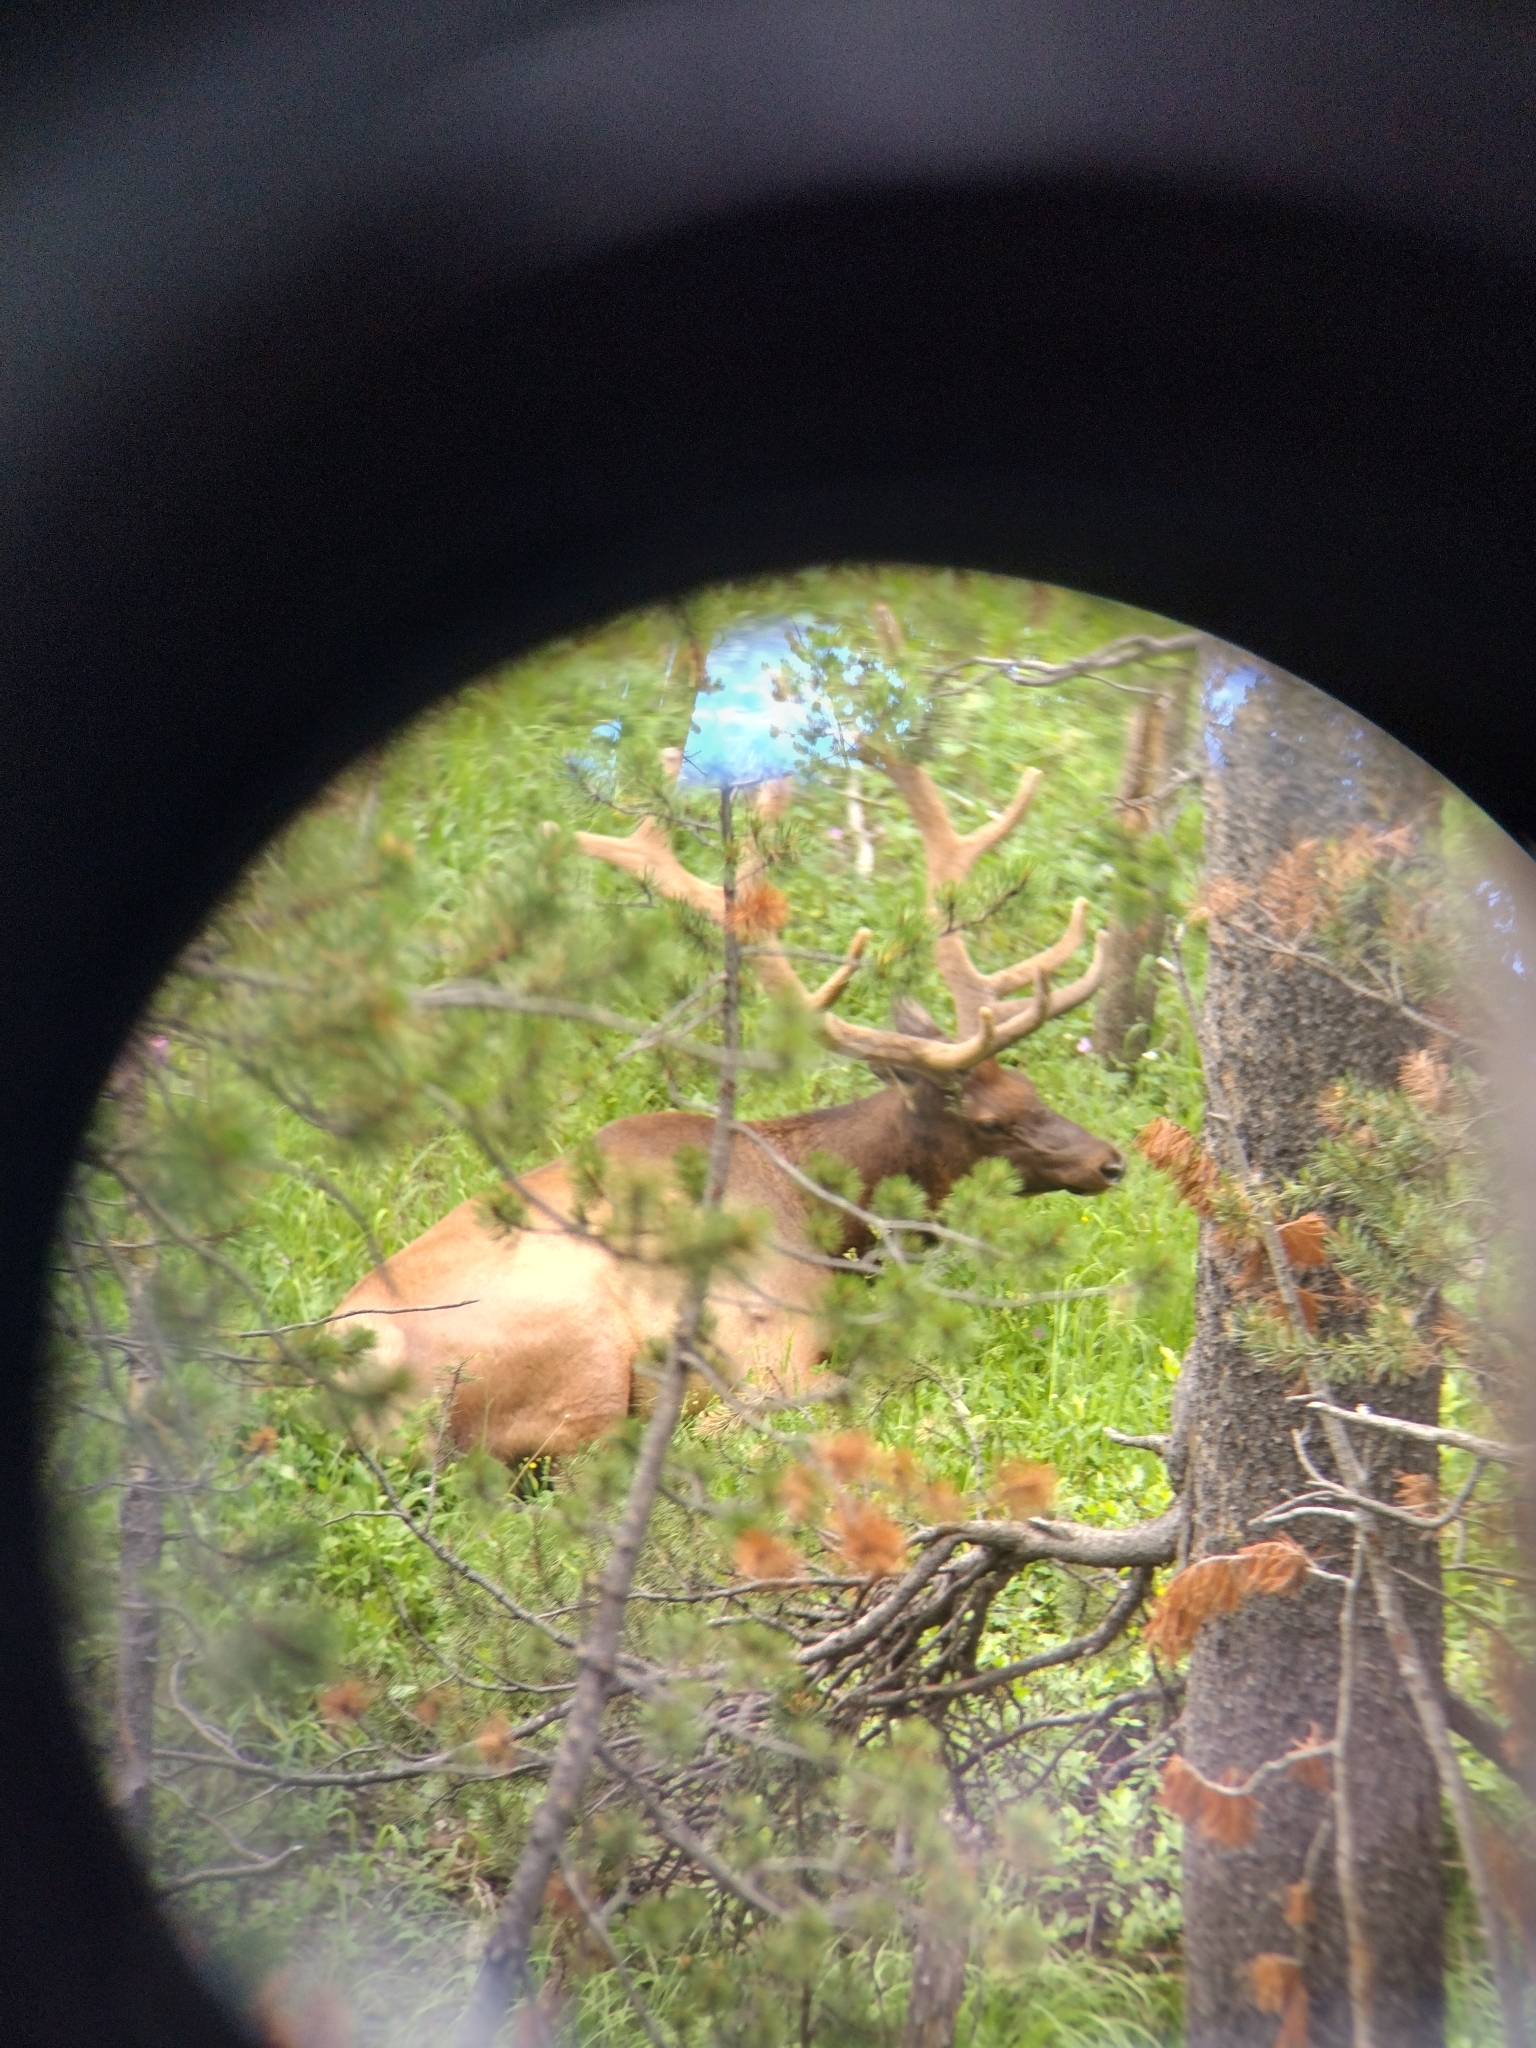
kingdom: Animalia
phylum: Chordata
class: Mammalia
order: Artiodactyla
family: Cervidae
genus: Cervus
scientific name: Cervus elaphus
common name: Red deer
